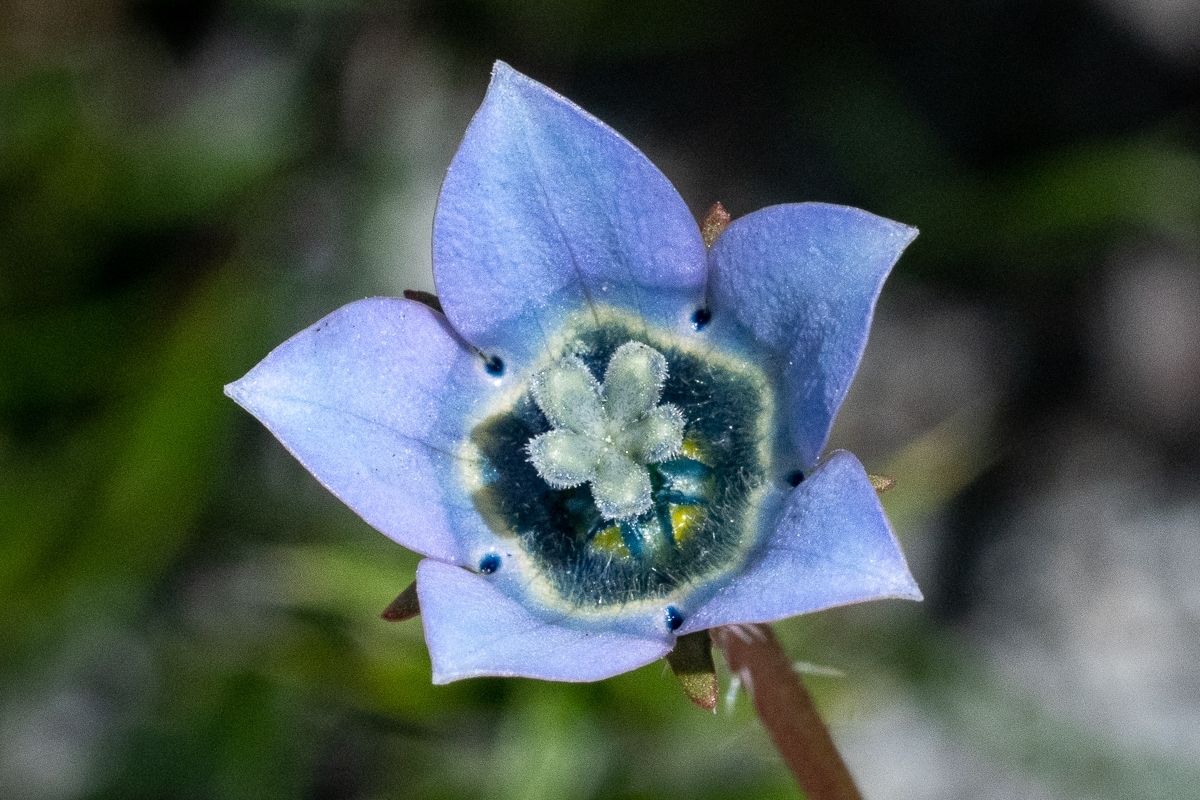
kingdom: Plantae
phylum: Tracheophyta
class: Magnoliopsida
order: Asterales
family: Campanulaceae
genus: Wahlenbergia
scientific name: Wahlenbergia capensis
